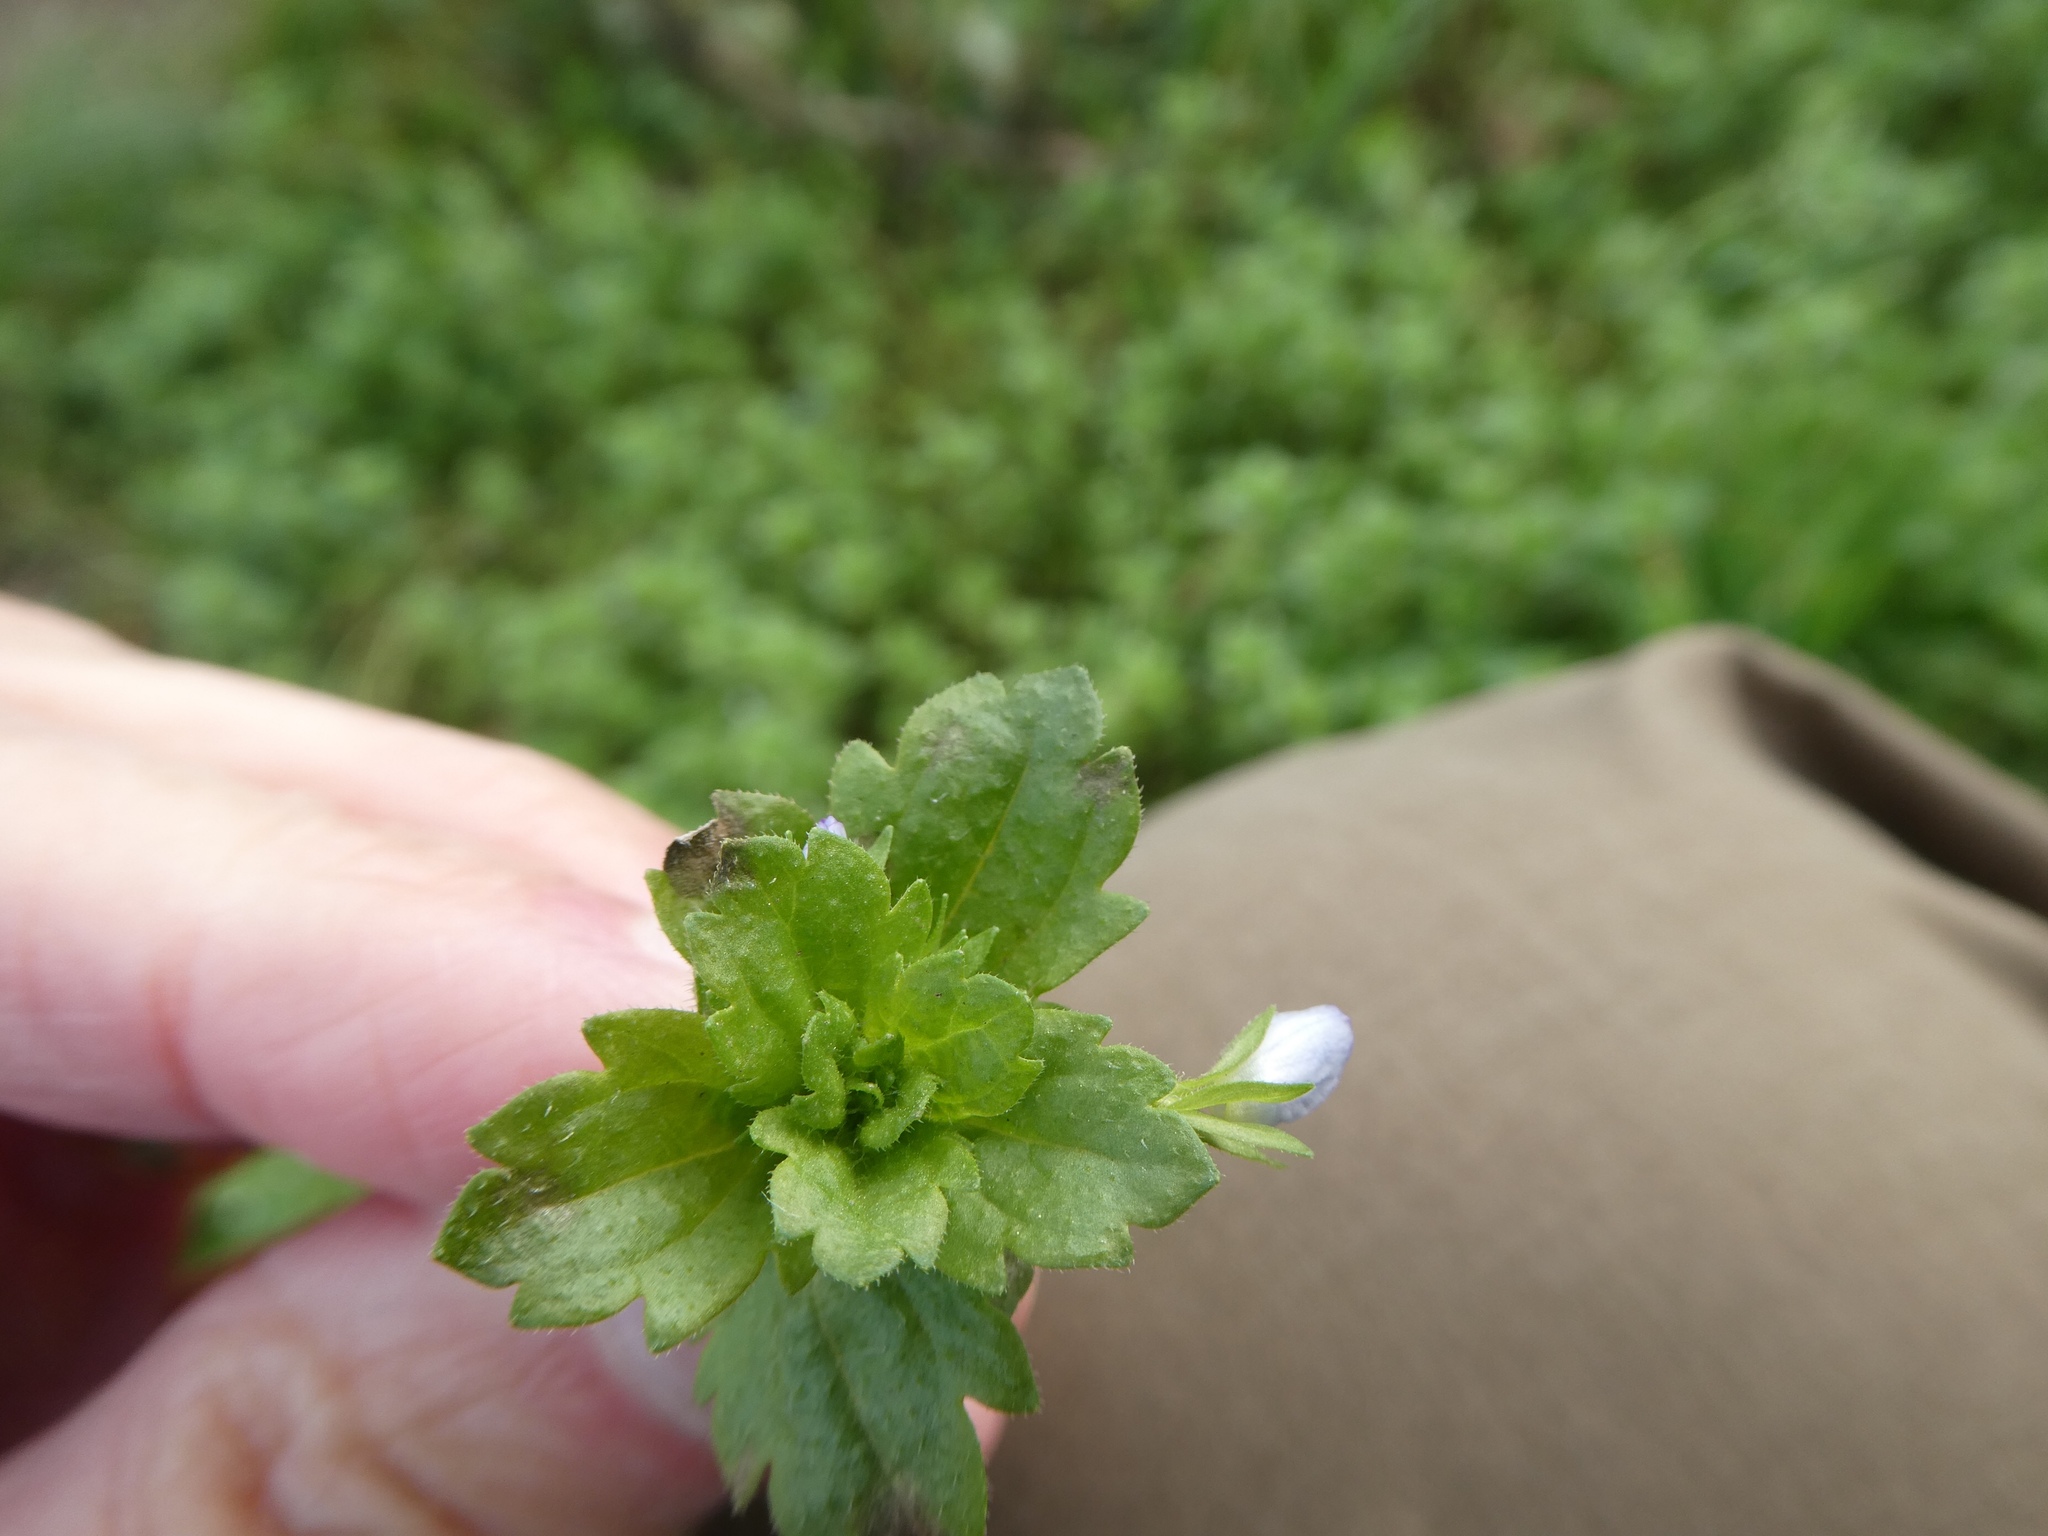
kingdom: Plantae
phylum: Tracheophyta
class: Magnoliopsida
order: Lamiales
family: Plantaginaceae
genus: Veronica
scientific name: Veronica persica
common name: Common field-speedwell
